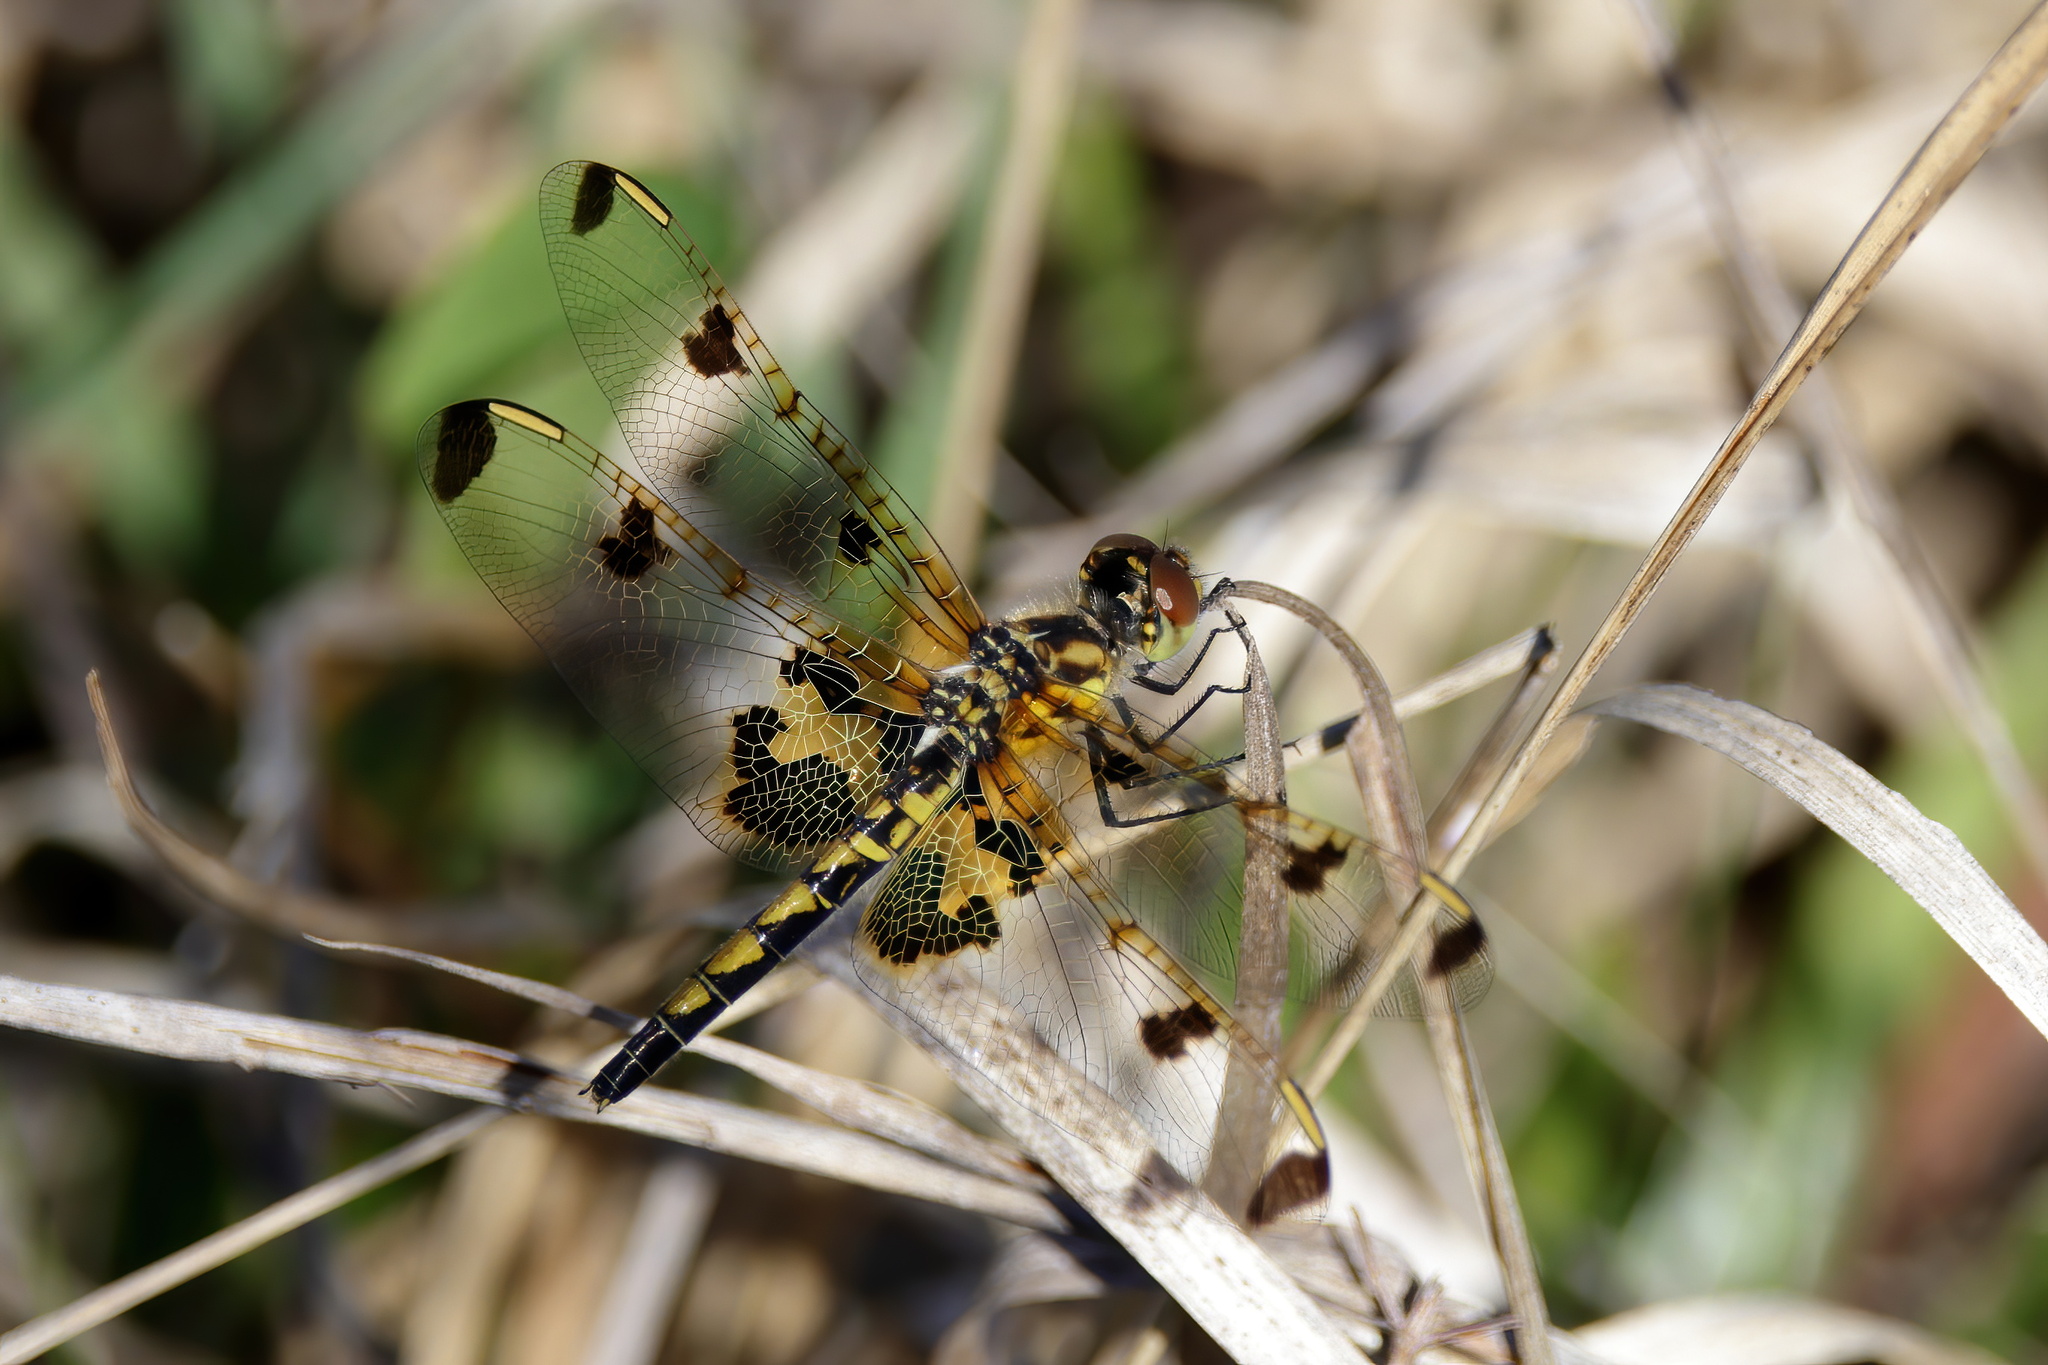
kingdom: Animalia
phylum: Arthropoda
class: Insecta
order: Odonata
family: Libellulidae
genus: Celithemis
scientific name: Celithemis elisa
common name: Calico pennant
